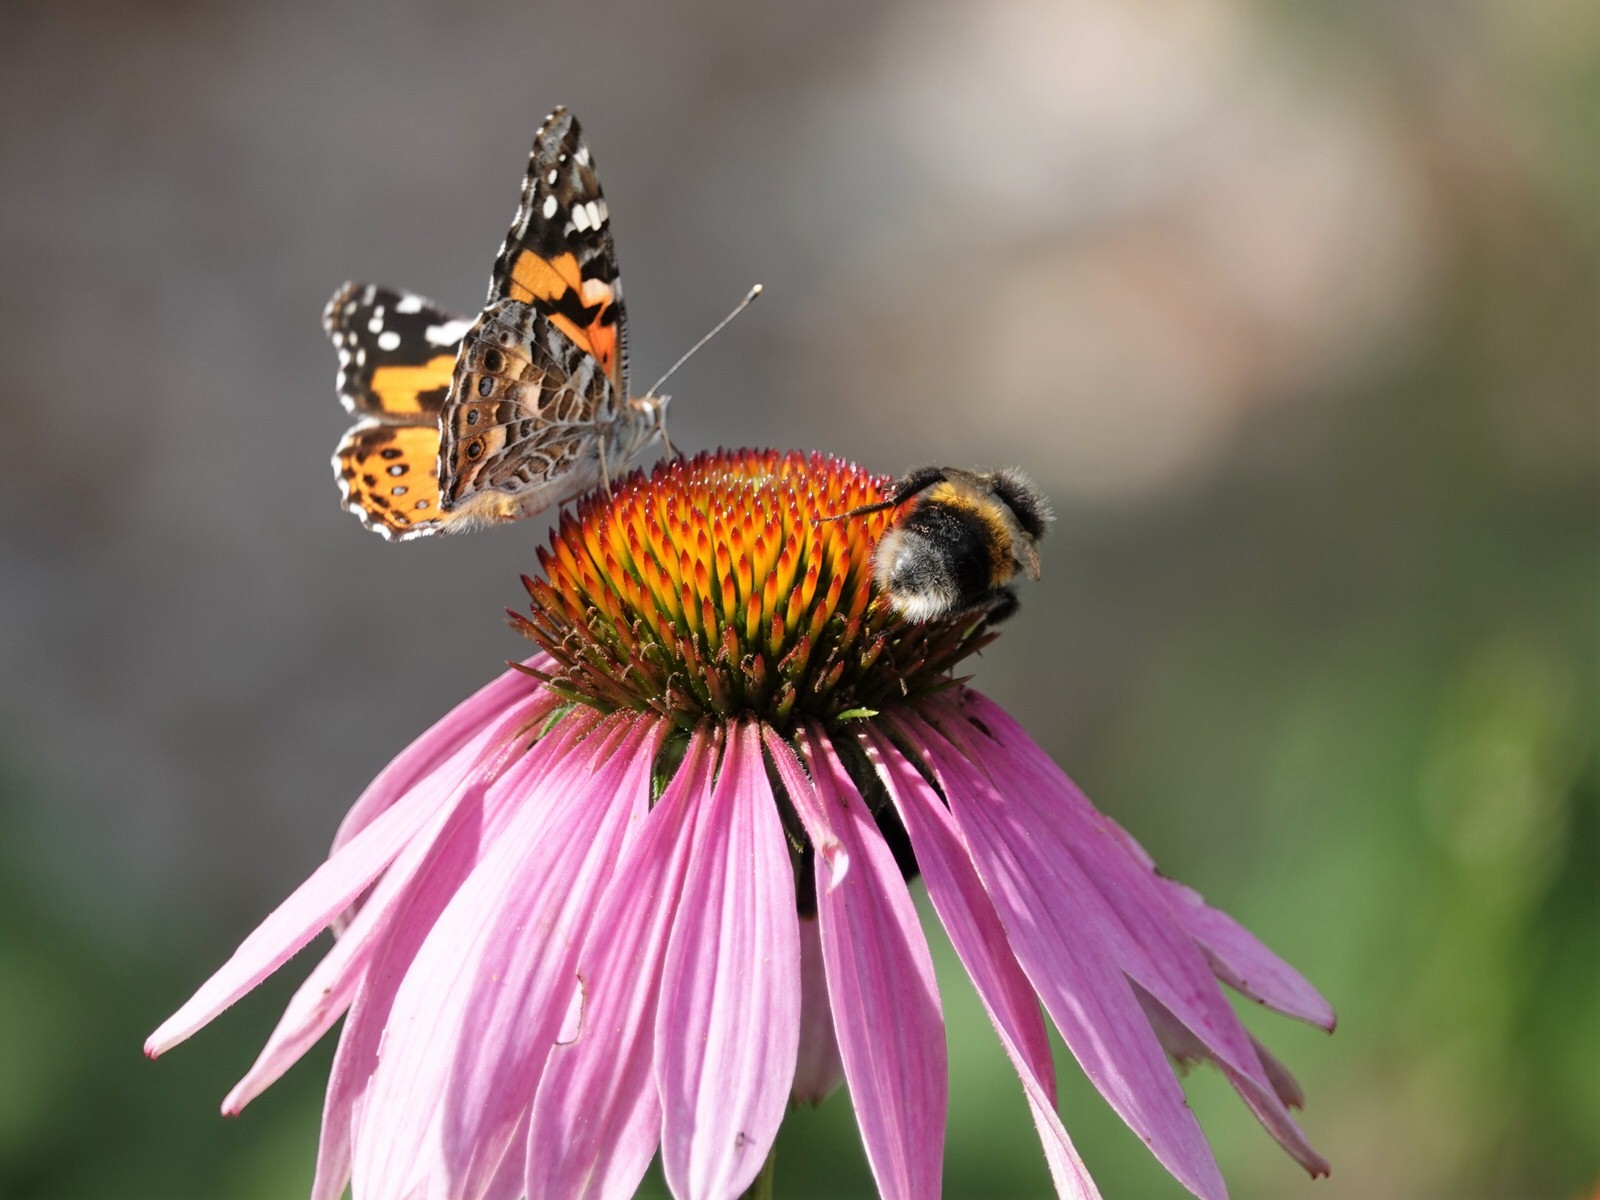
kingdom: Animalia
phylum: Arthropoda
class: Insecta
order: Hymenoptera
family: Apidae
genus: Bombus
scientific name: Bombus terrestris
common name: Buff-tailed bumblebee
